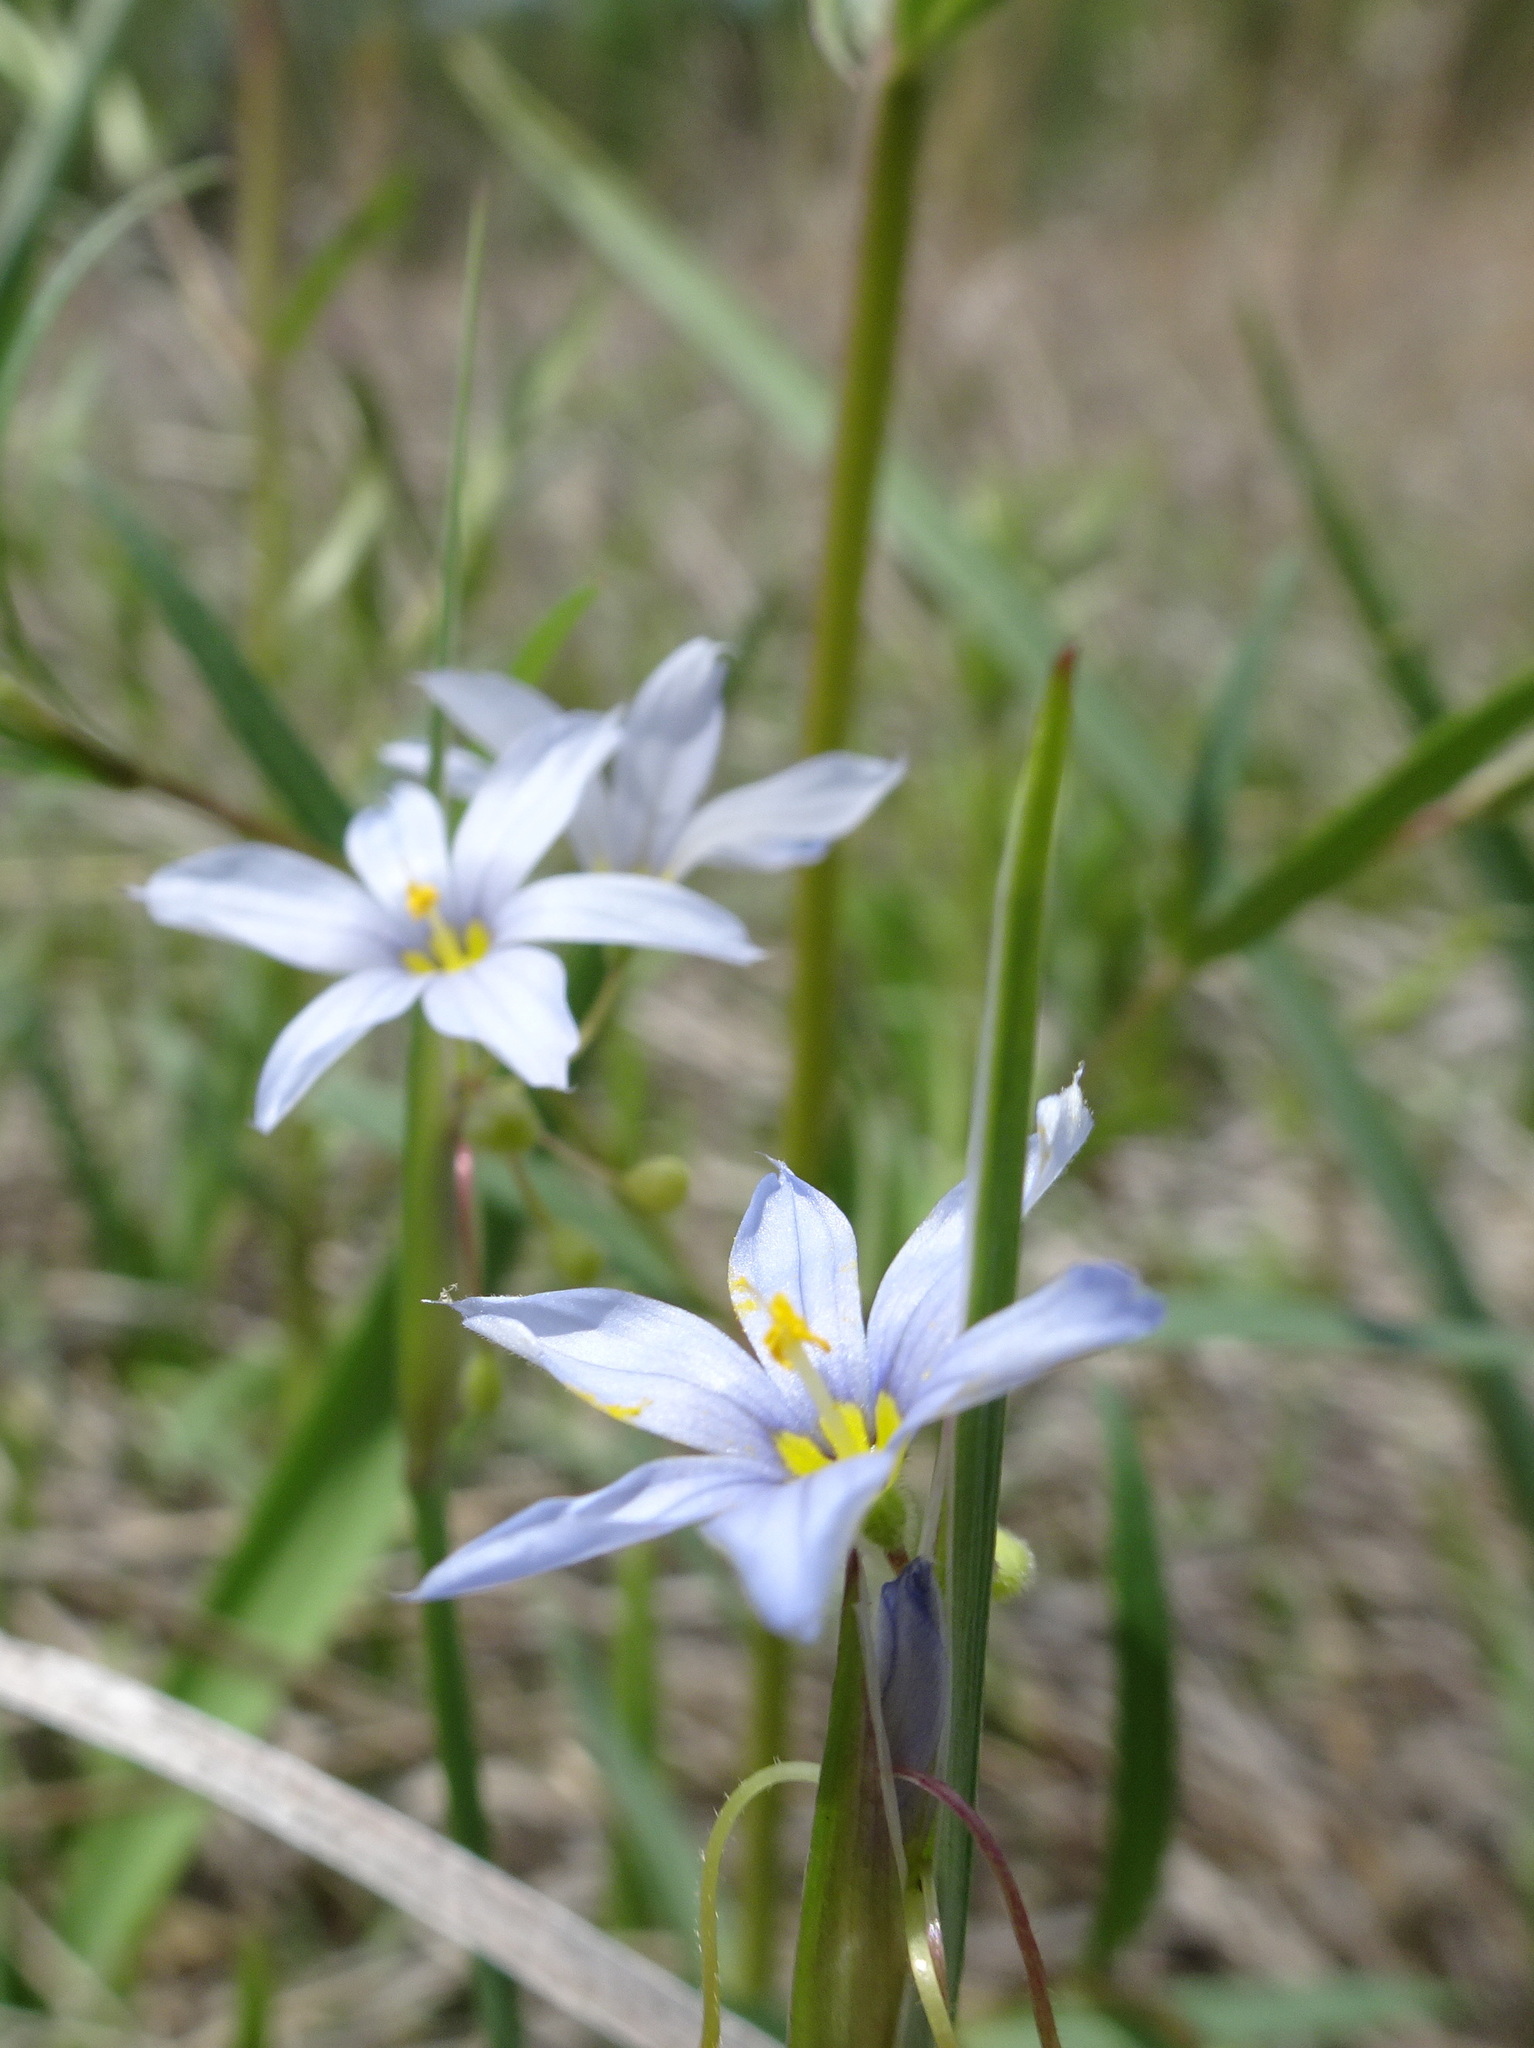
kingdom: Plantae
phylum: Tracheophyta
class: Liliopsida
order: Asparagales
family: Iridaceae
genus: Sisyrinchium
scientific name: Sisyrinchium campestre
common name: Prairie blue-eyed-grass
